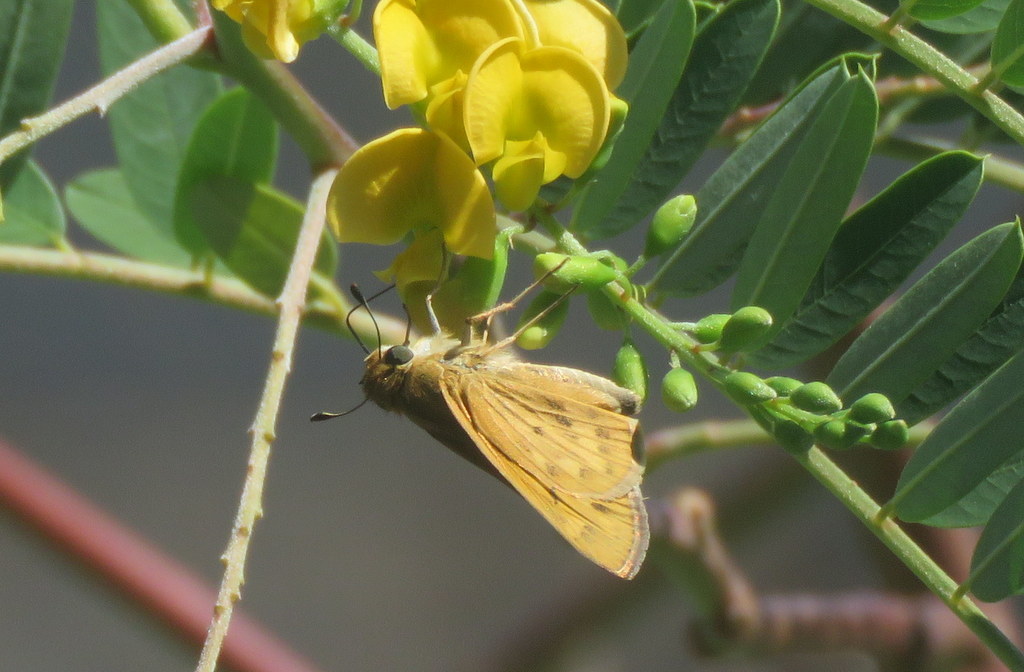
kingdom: Animalia
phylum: Arthropoda
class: Insecta
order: Lepidoptera
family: Hesperiidae
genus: Hylephila
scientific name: Hylephila phyleus
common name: Fiery skipper
